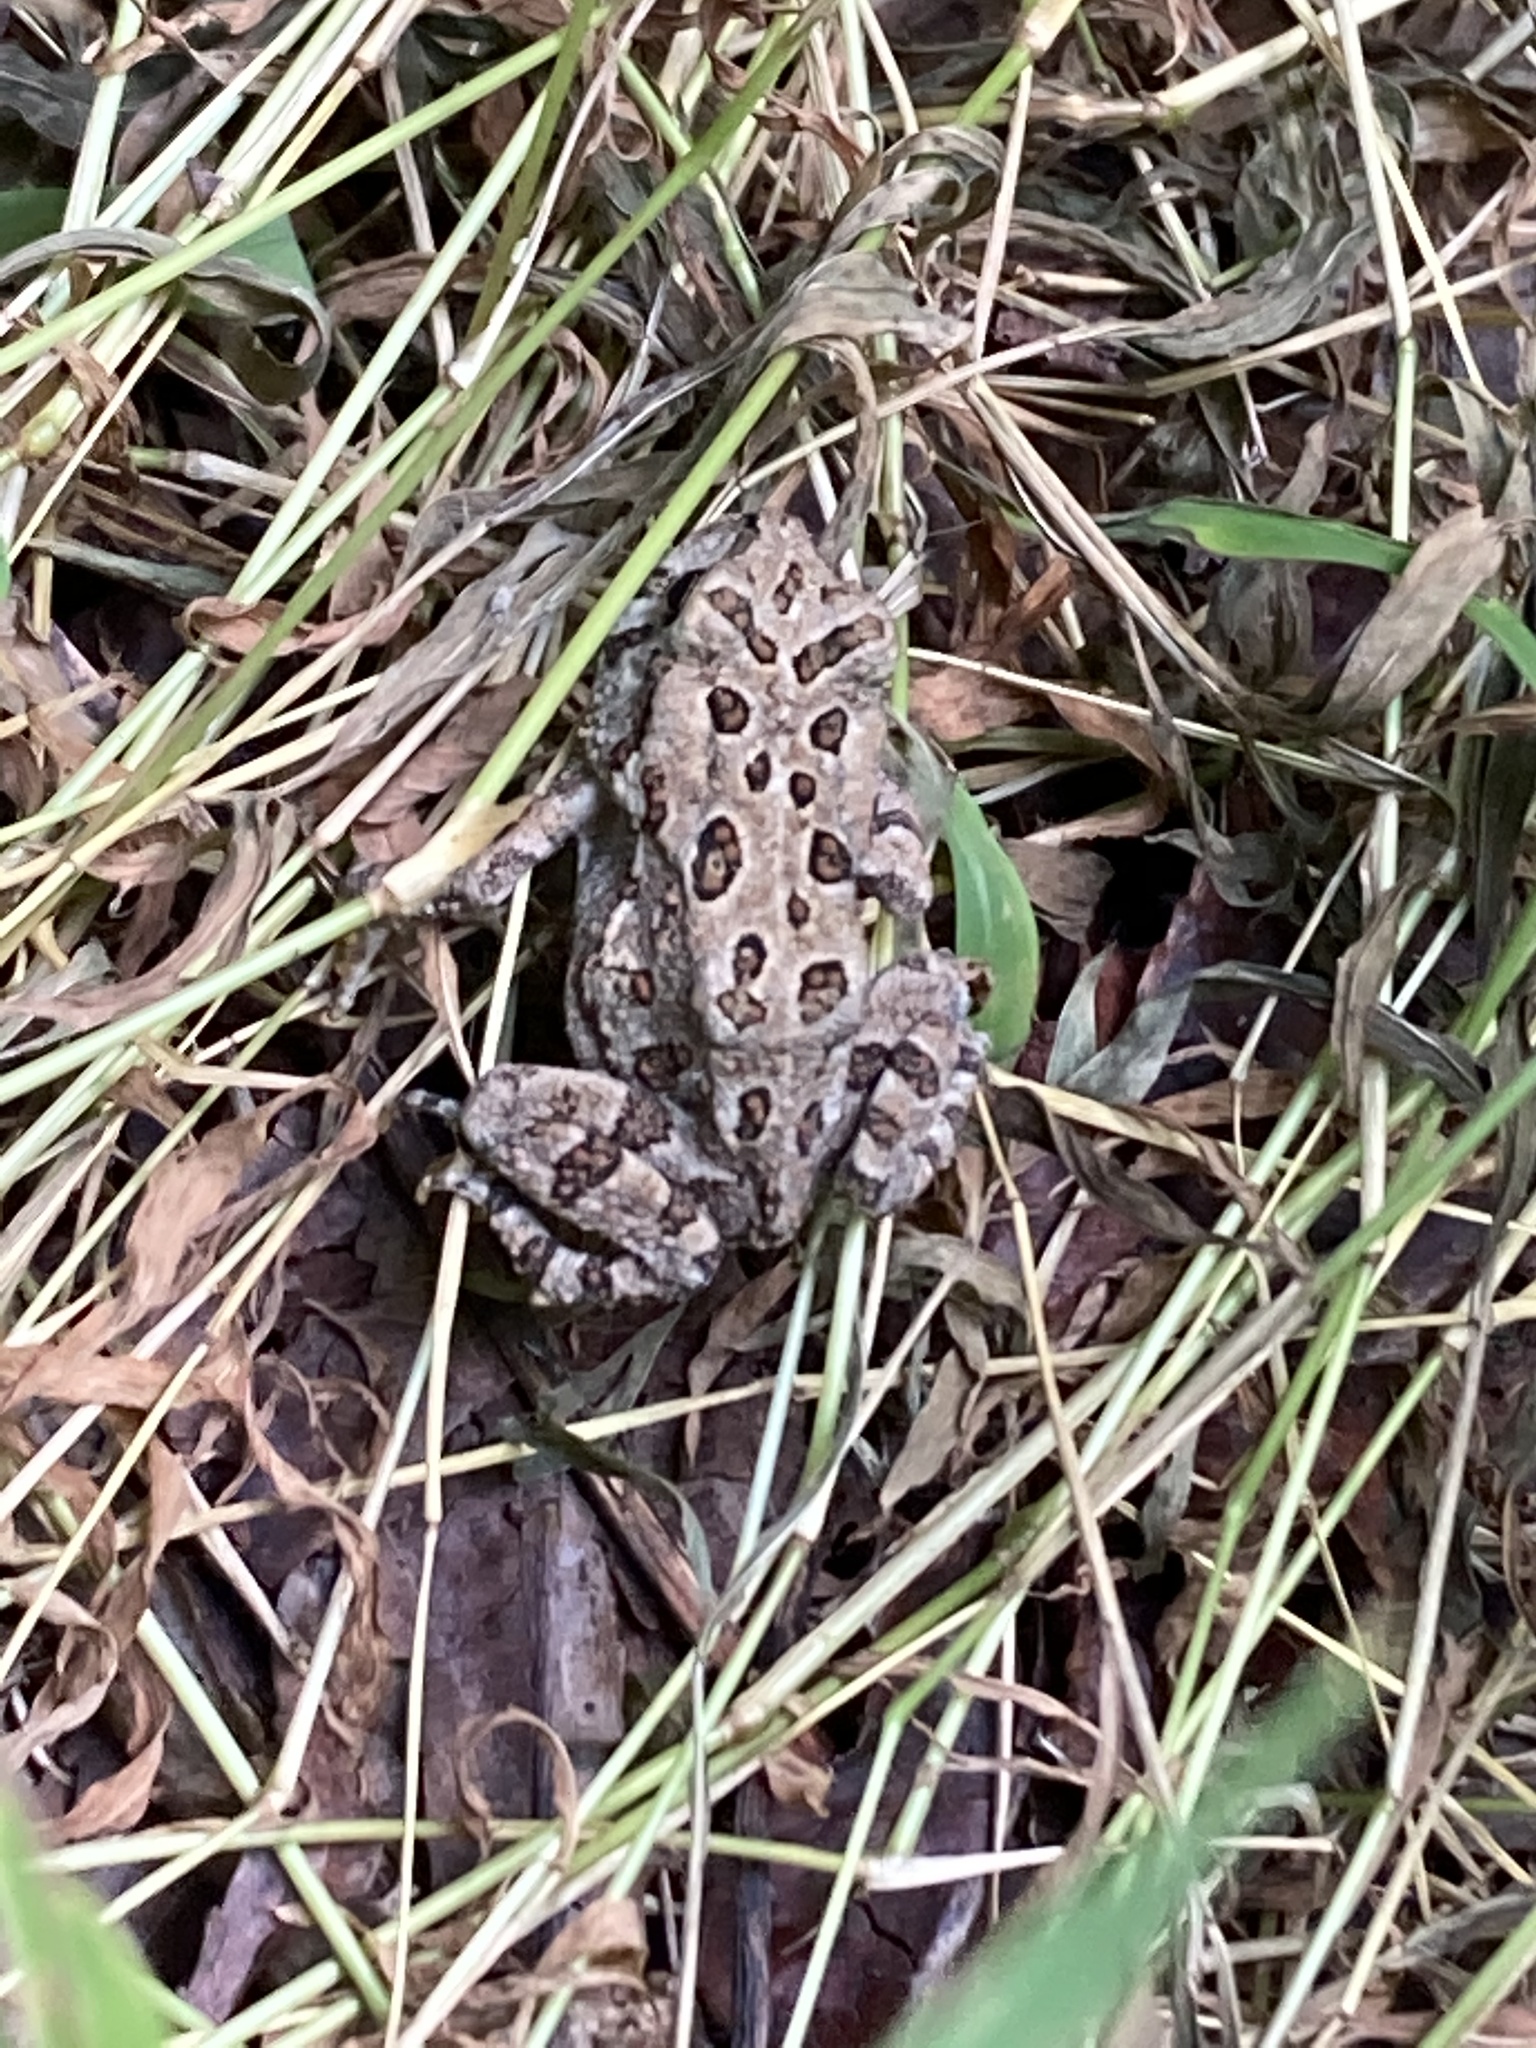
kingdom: Animalia
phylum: Chordata
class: Amphibia
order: Anura
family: Bufonidae
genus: Anaxyrus
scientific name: Anaxyrus fowleri
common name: Fowler's toad
